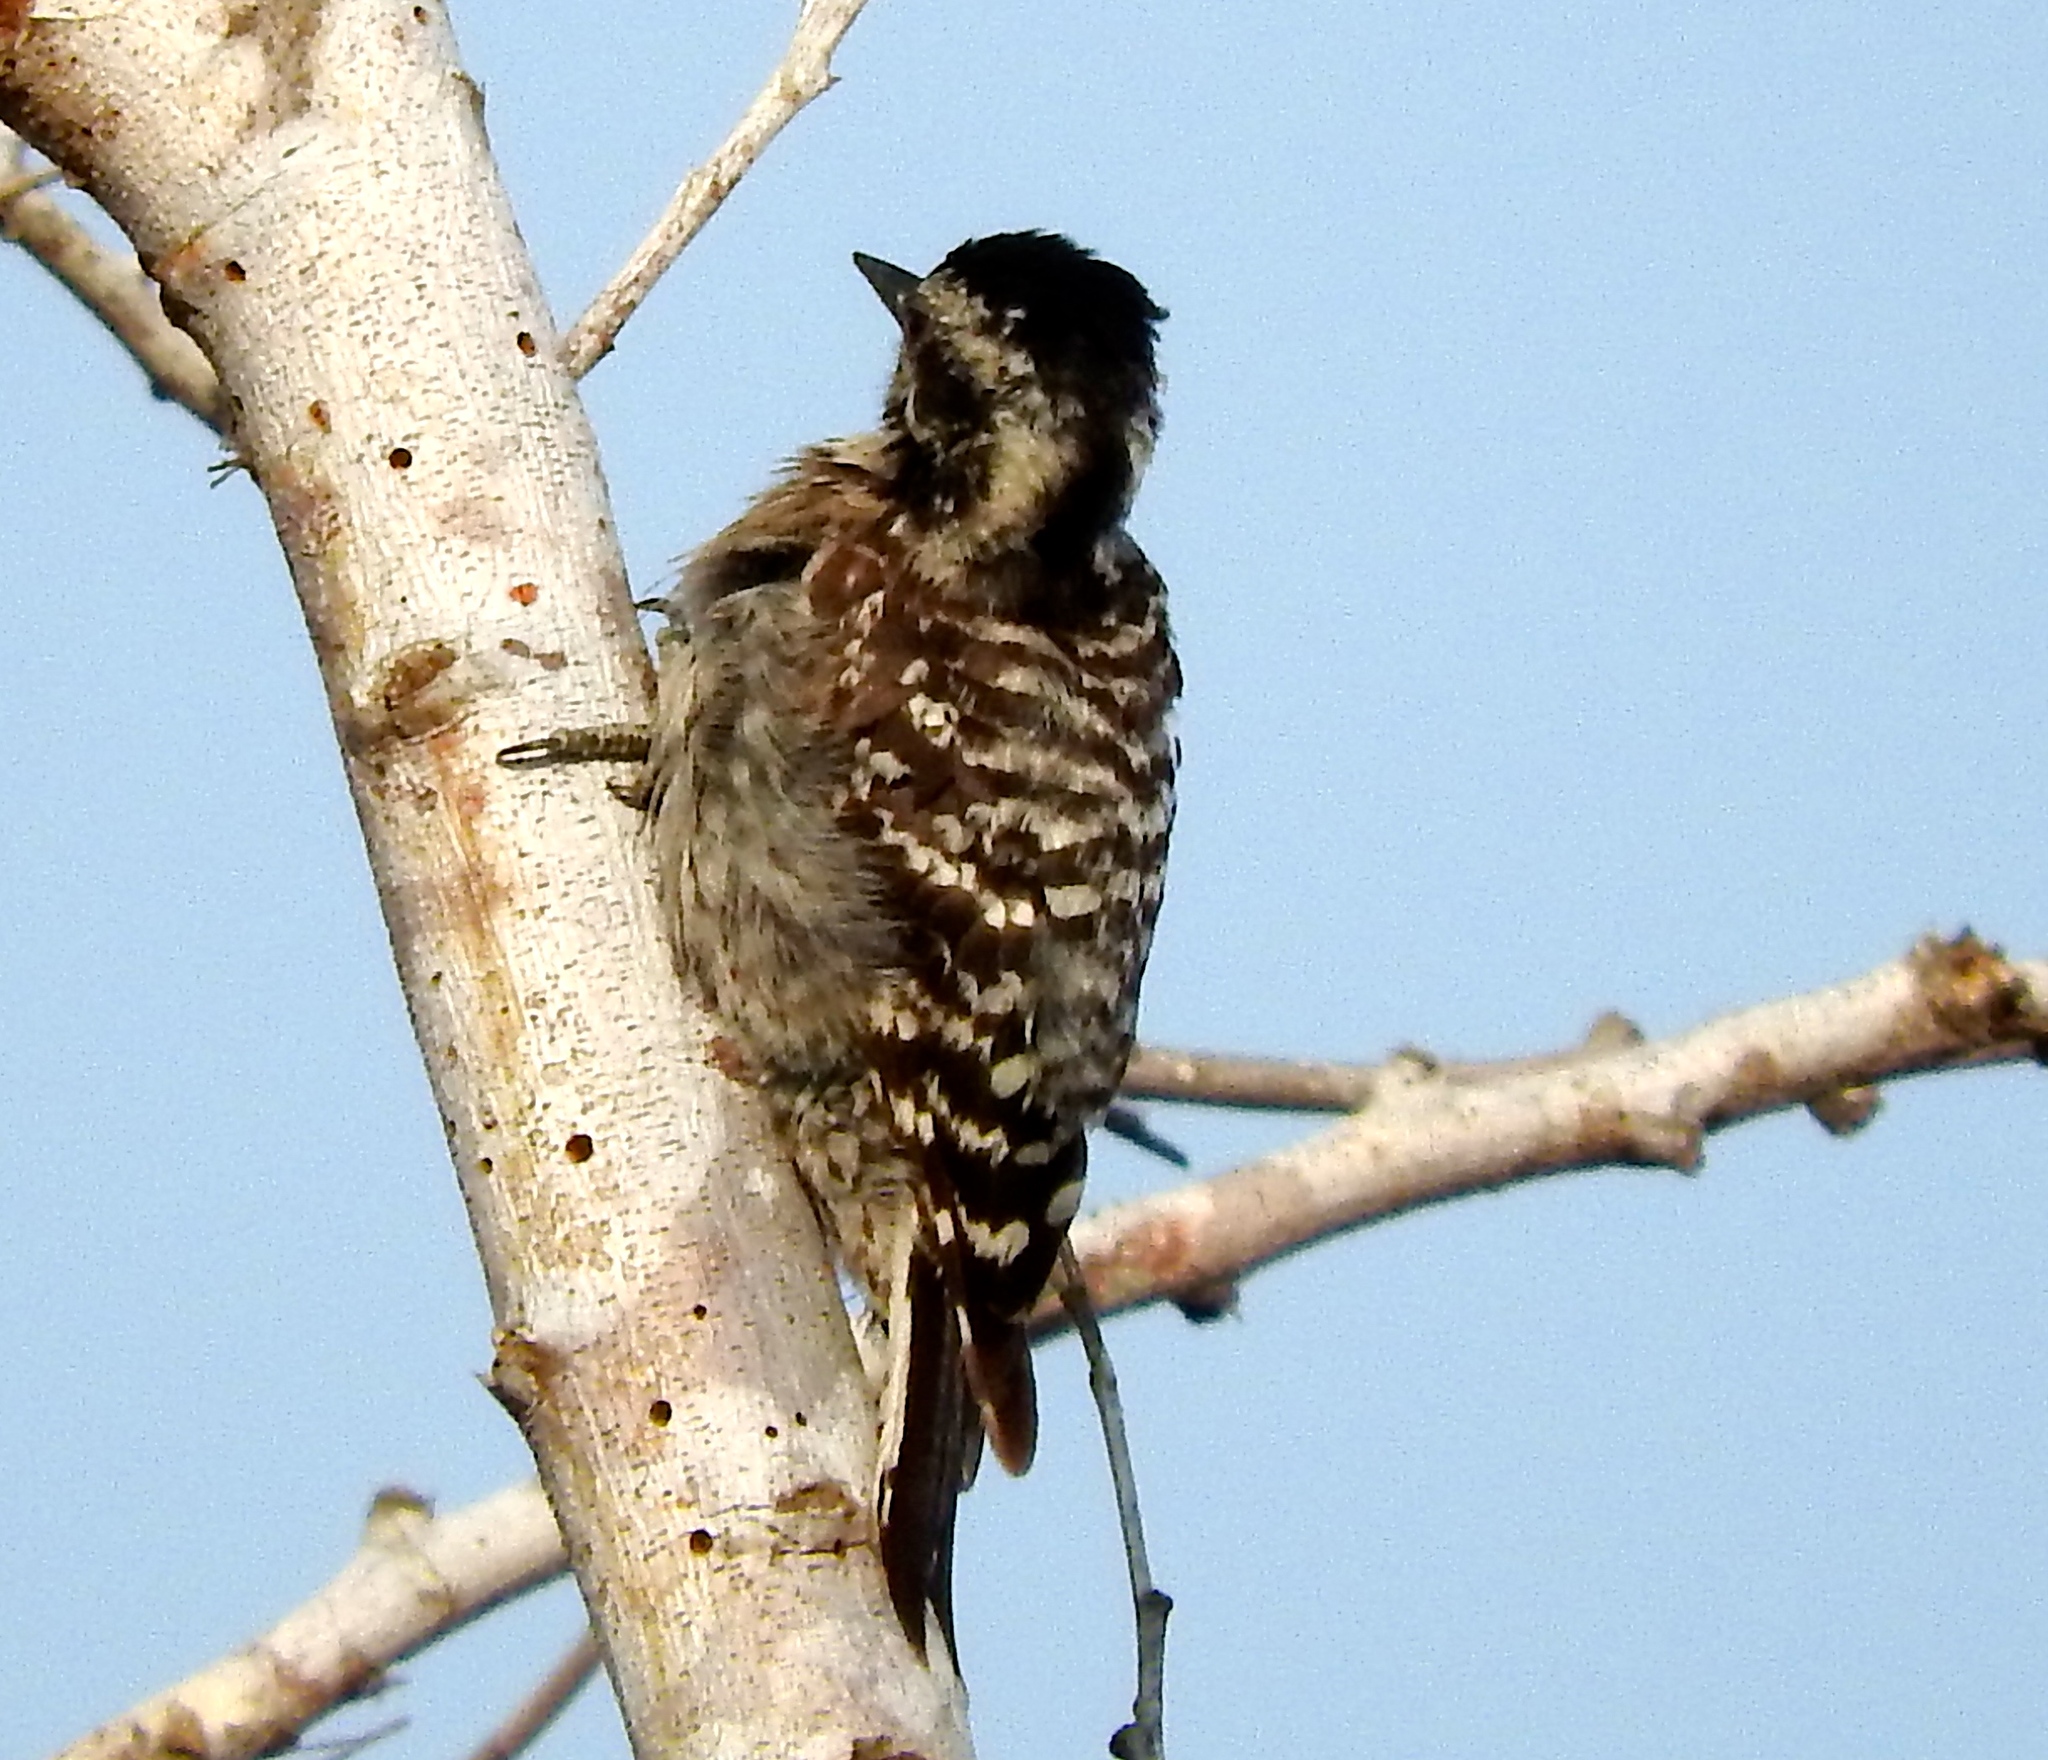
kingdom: Animalia
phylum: Chordata
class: Aves
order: Piciformes
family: Picidae
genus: Dryobates
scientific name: Dryobates scalaris
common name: Ladder-backed woodpecker
